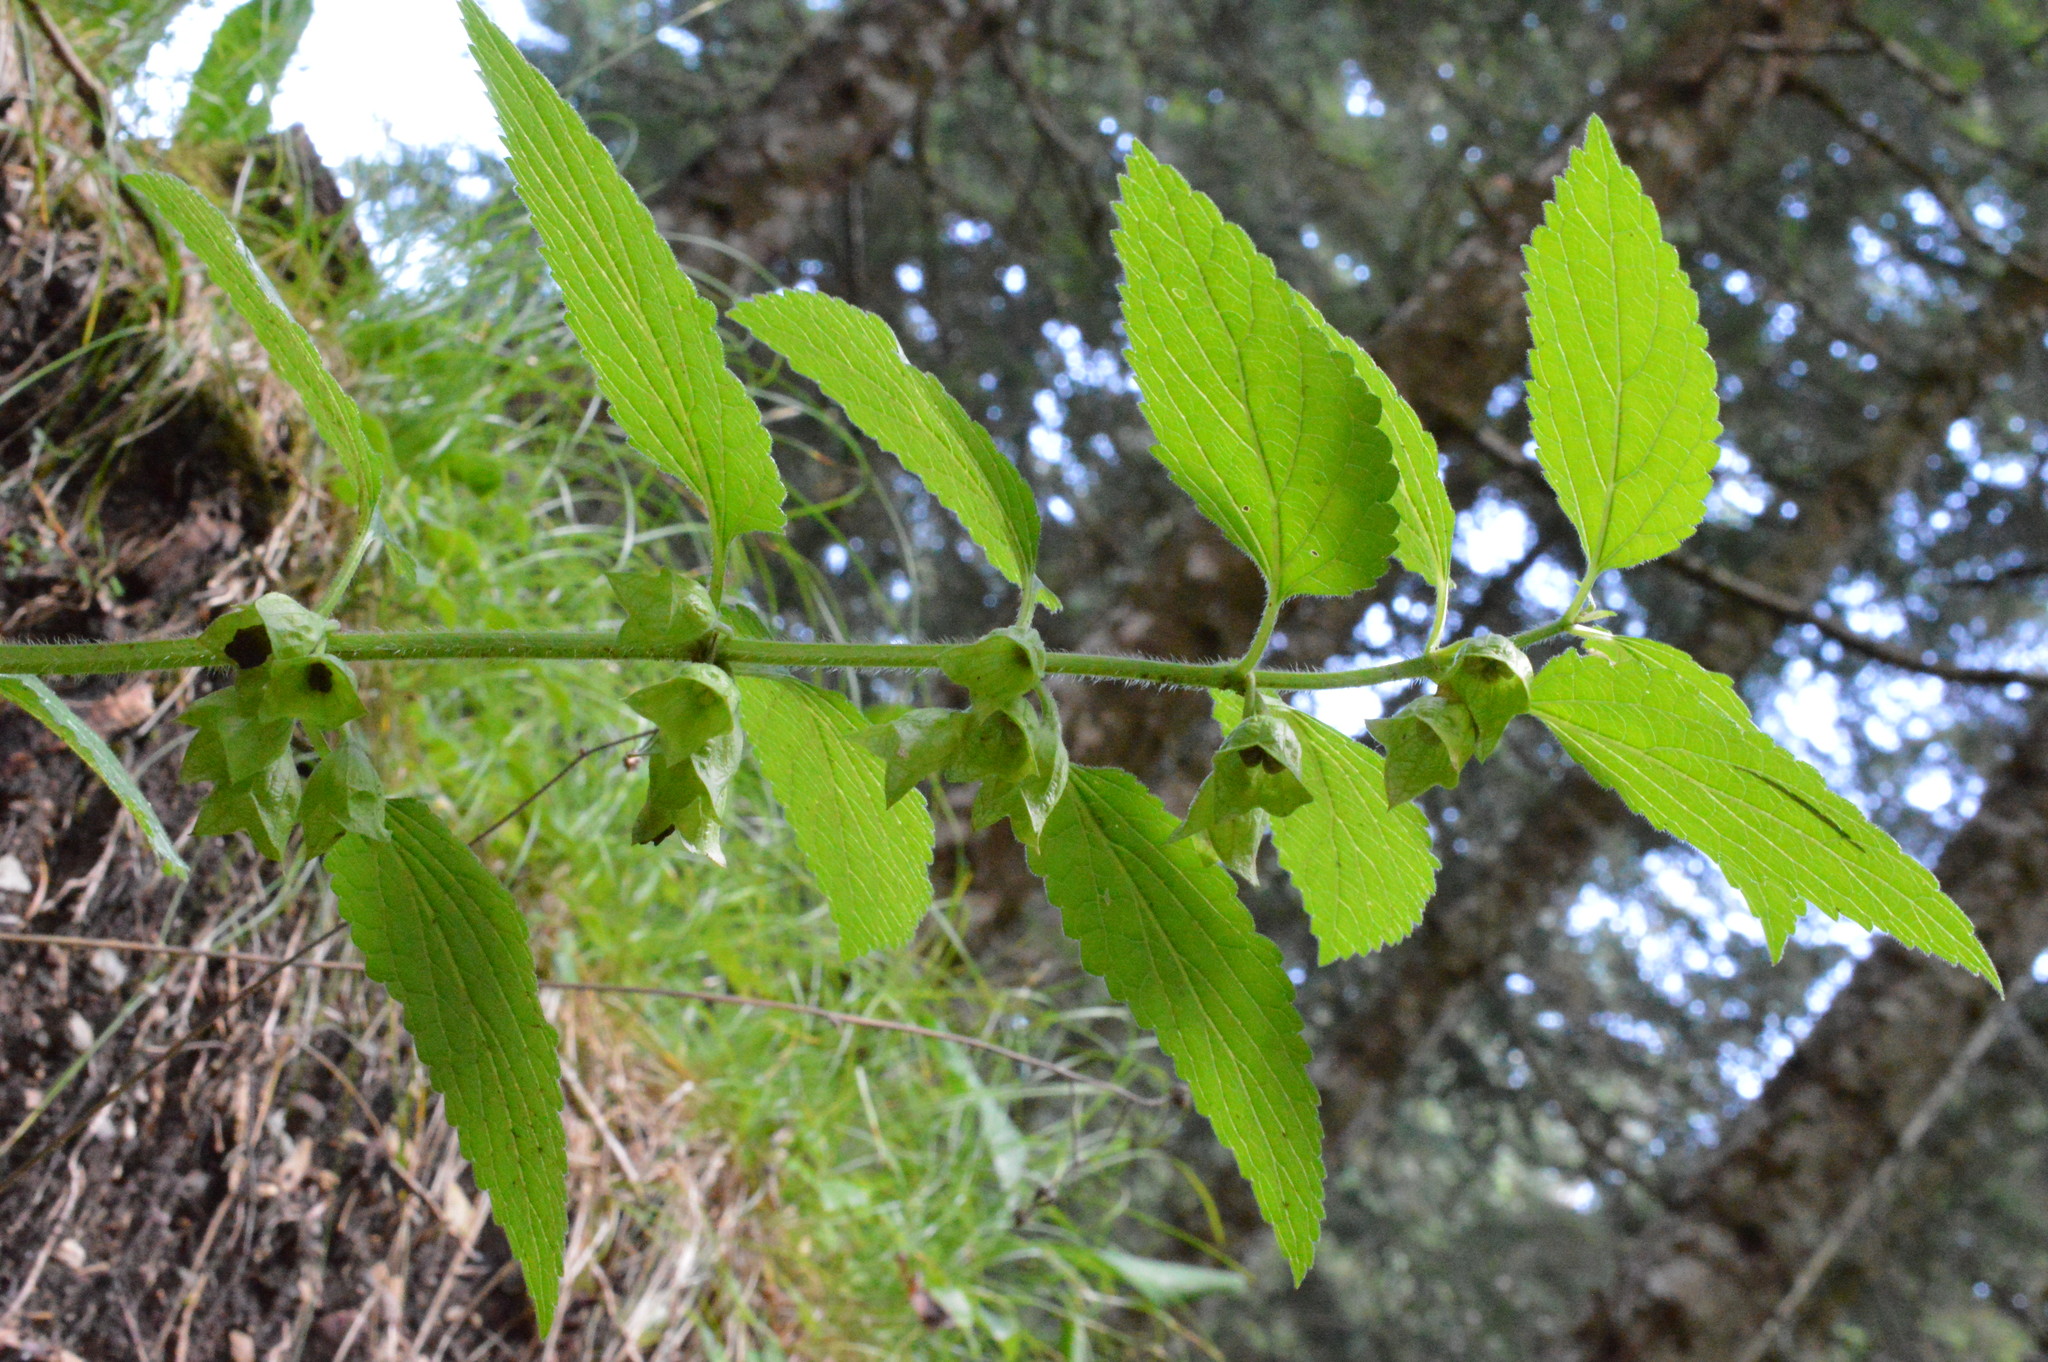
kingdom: Plantae
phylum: Tracheophyta
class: Magnoliopsida
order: Lamiales
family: Lamiaceae
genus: Melittis
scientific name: Melittis melissophyllum
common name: Bastard balm
